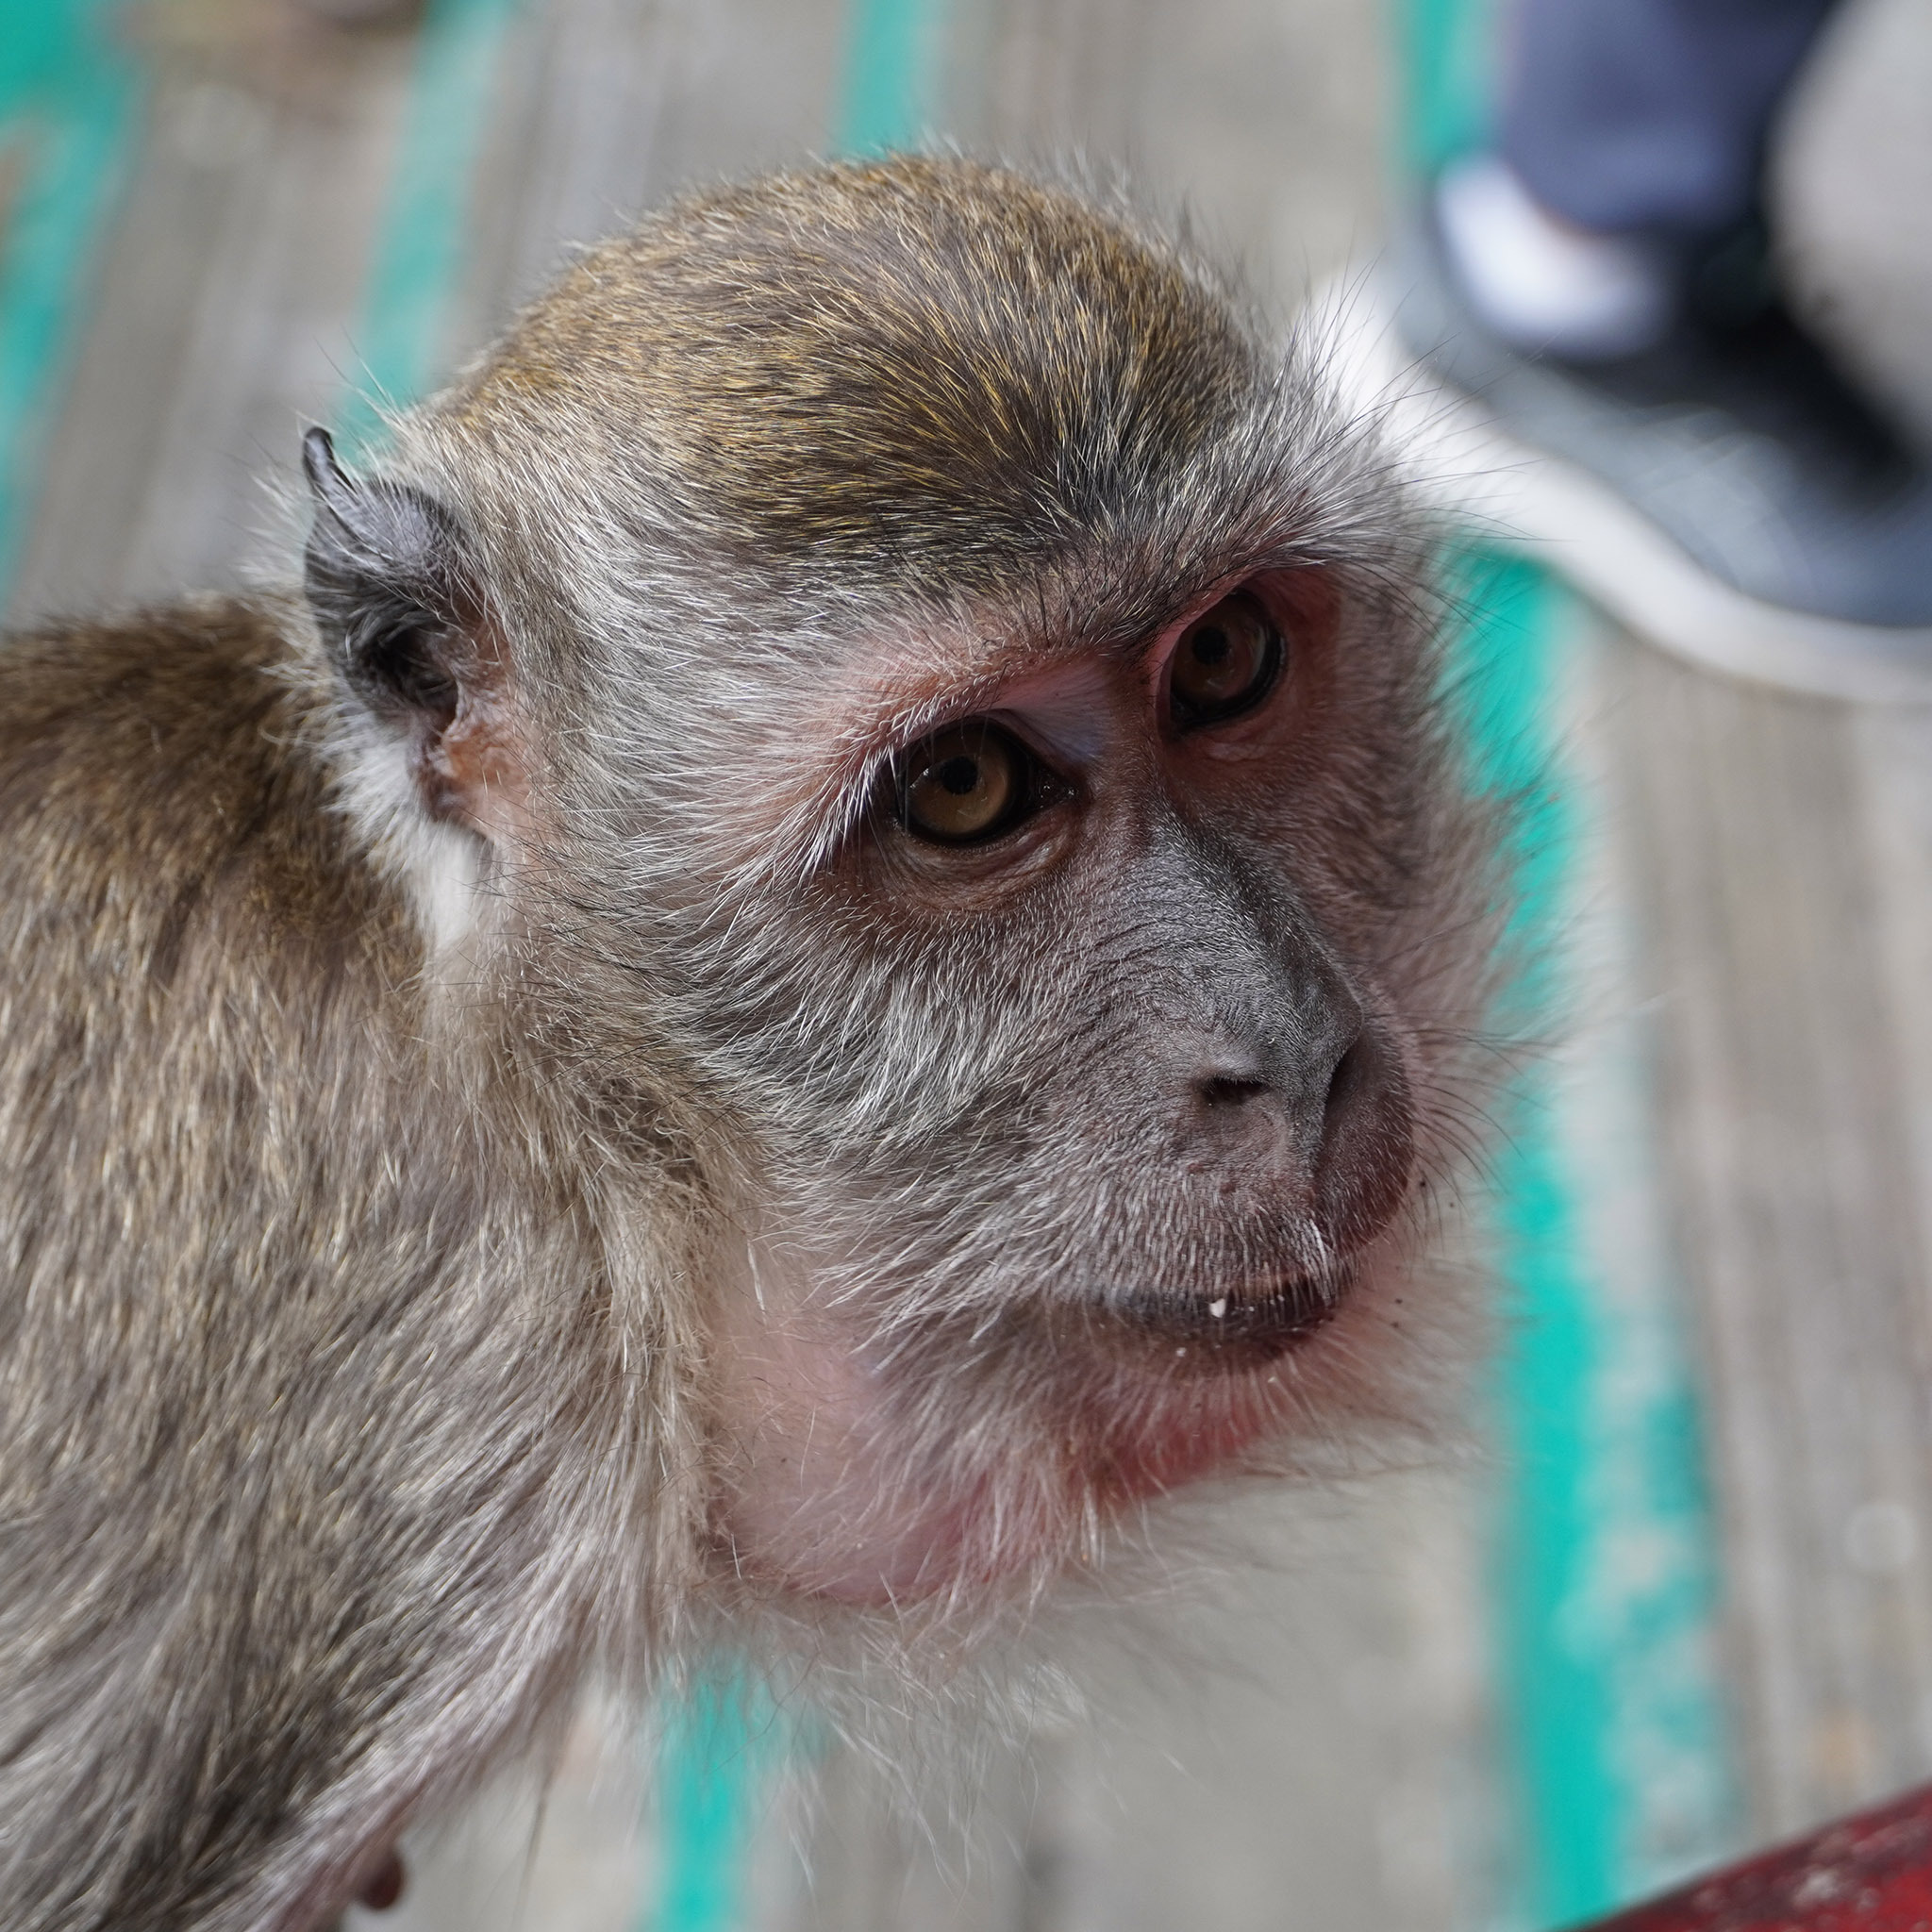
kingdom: Animalia
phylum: Chordata
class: Mammalia
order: Primates
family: Cercopithecidae
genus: Macaca
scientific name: Macaca fascicularis
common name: Crab-eating macaque
